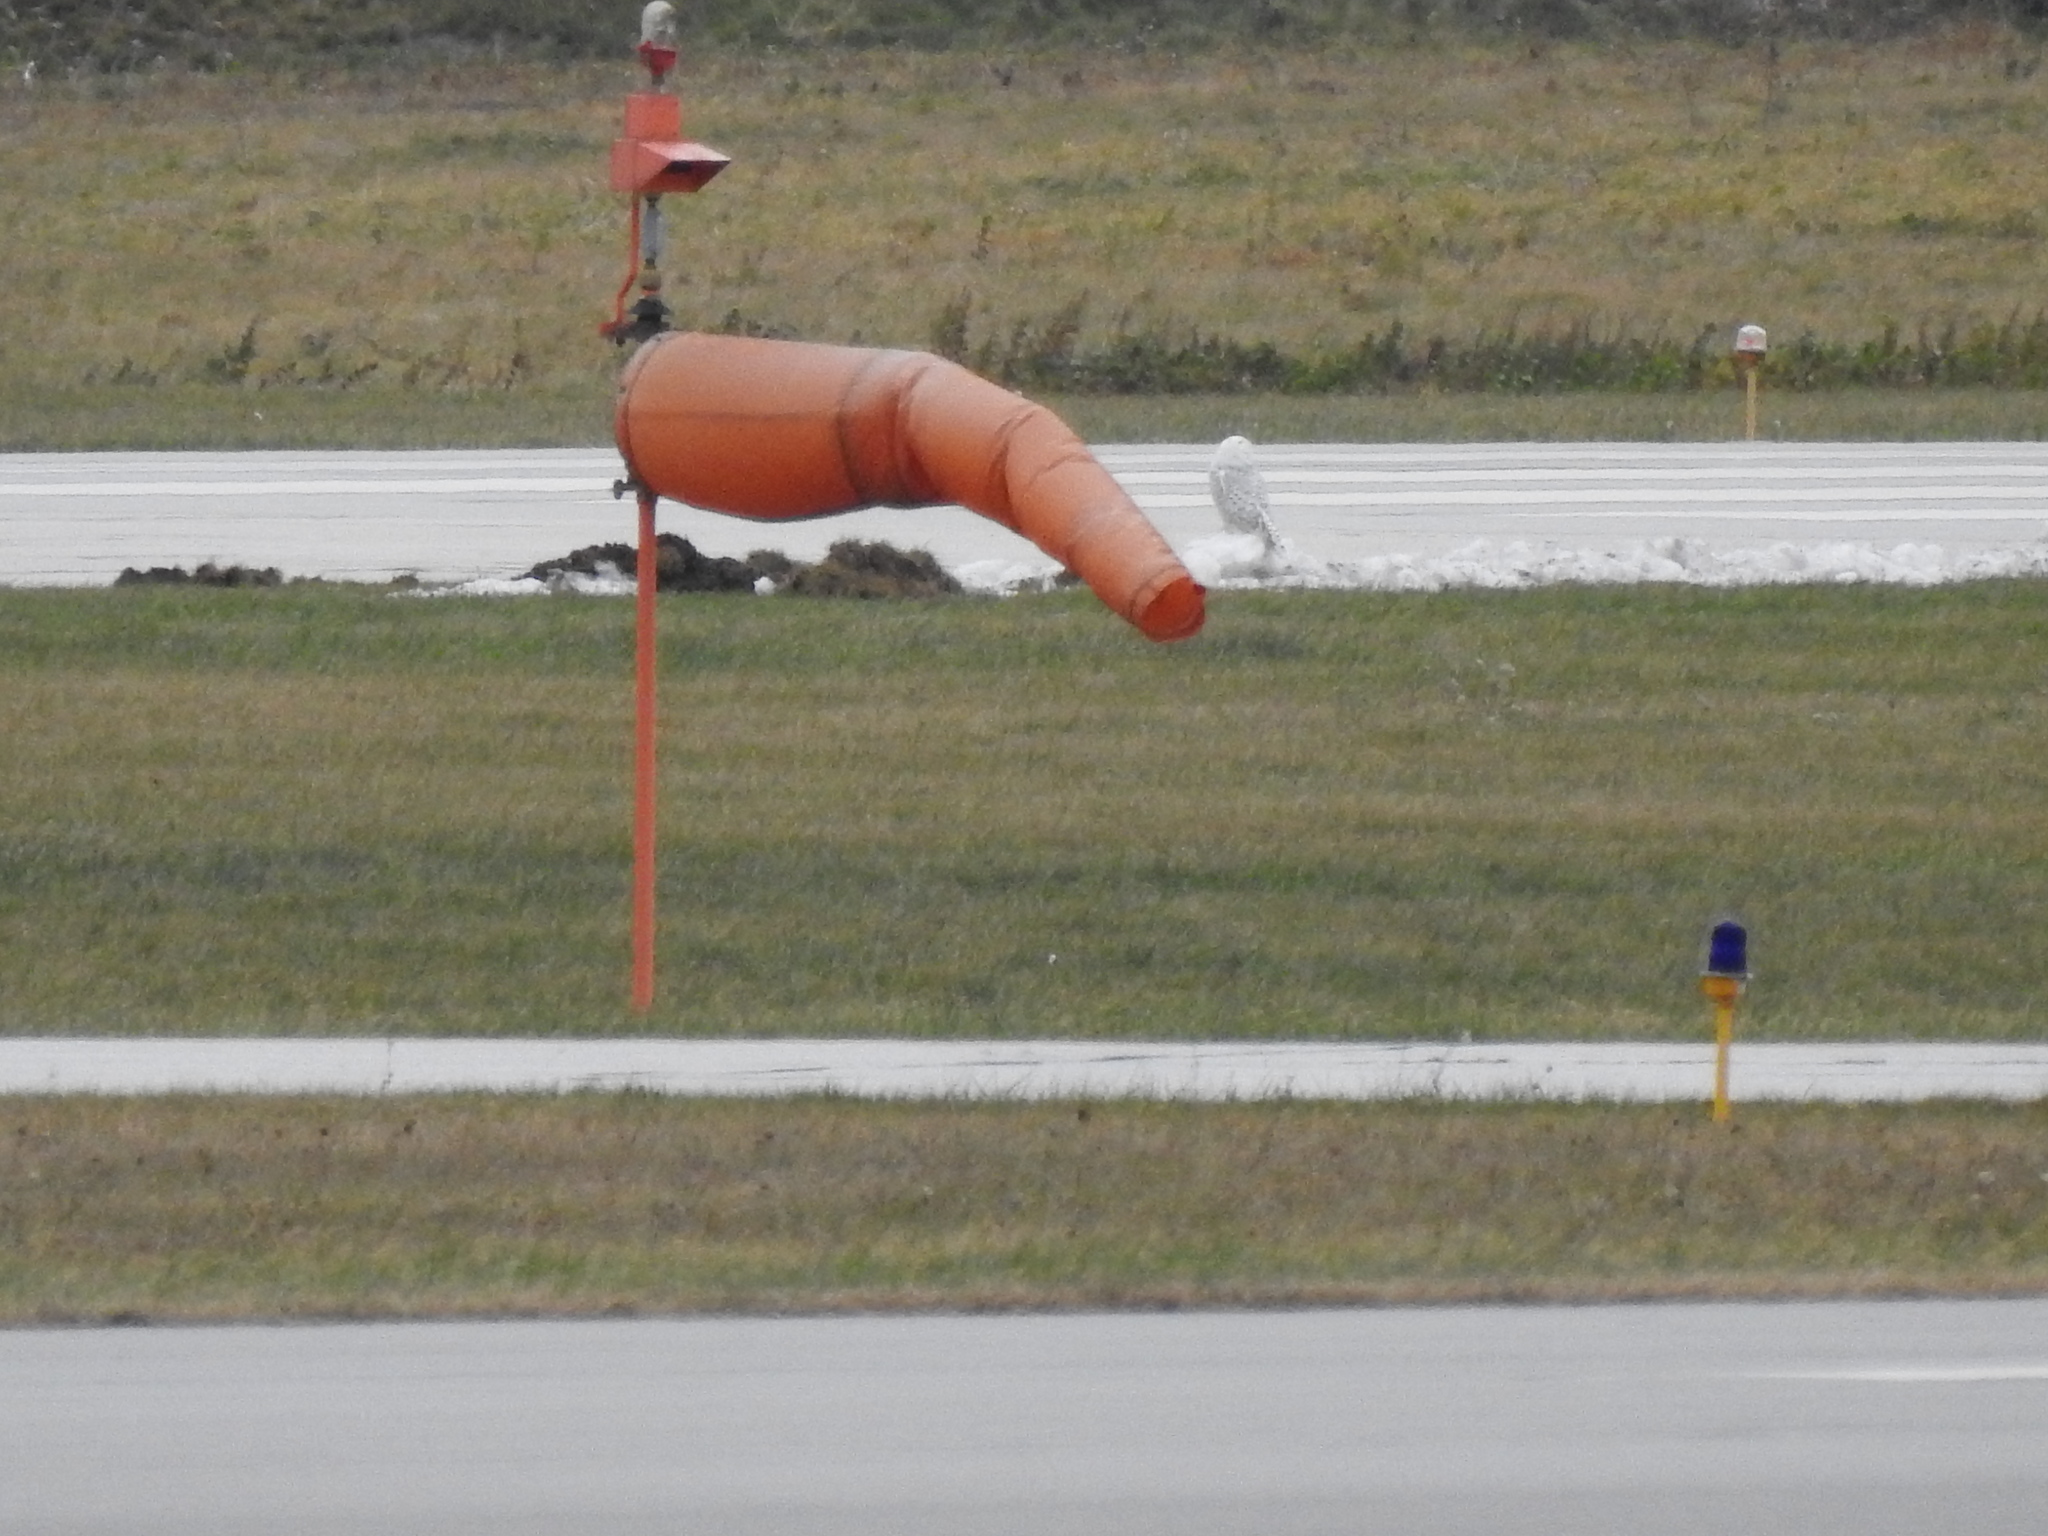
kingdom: Animalia
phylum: Chordata
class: Aves
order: Strigiformes
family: Strigidae
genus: Bubo
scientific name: Bubo scandiacus
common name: Snowy owl
